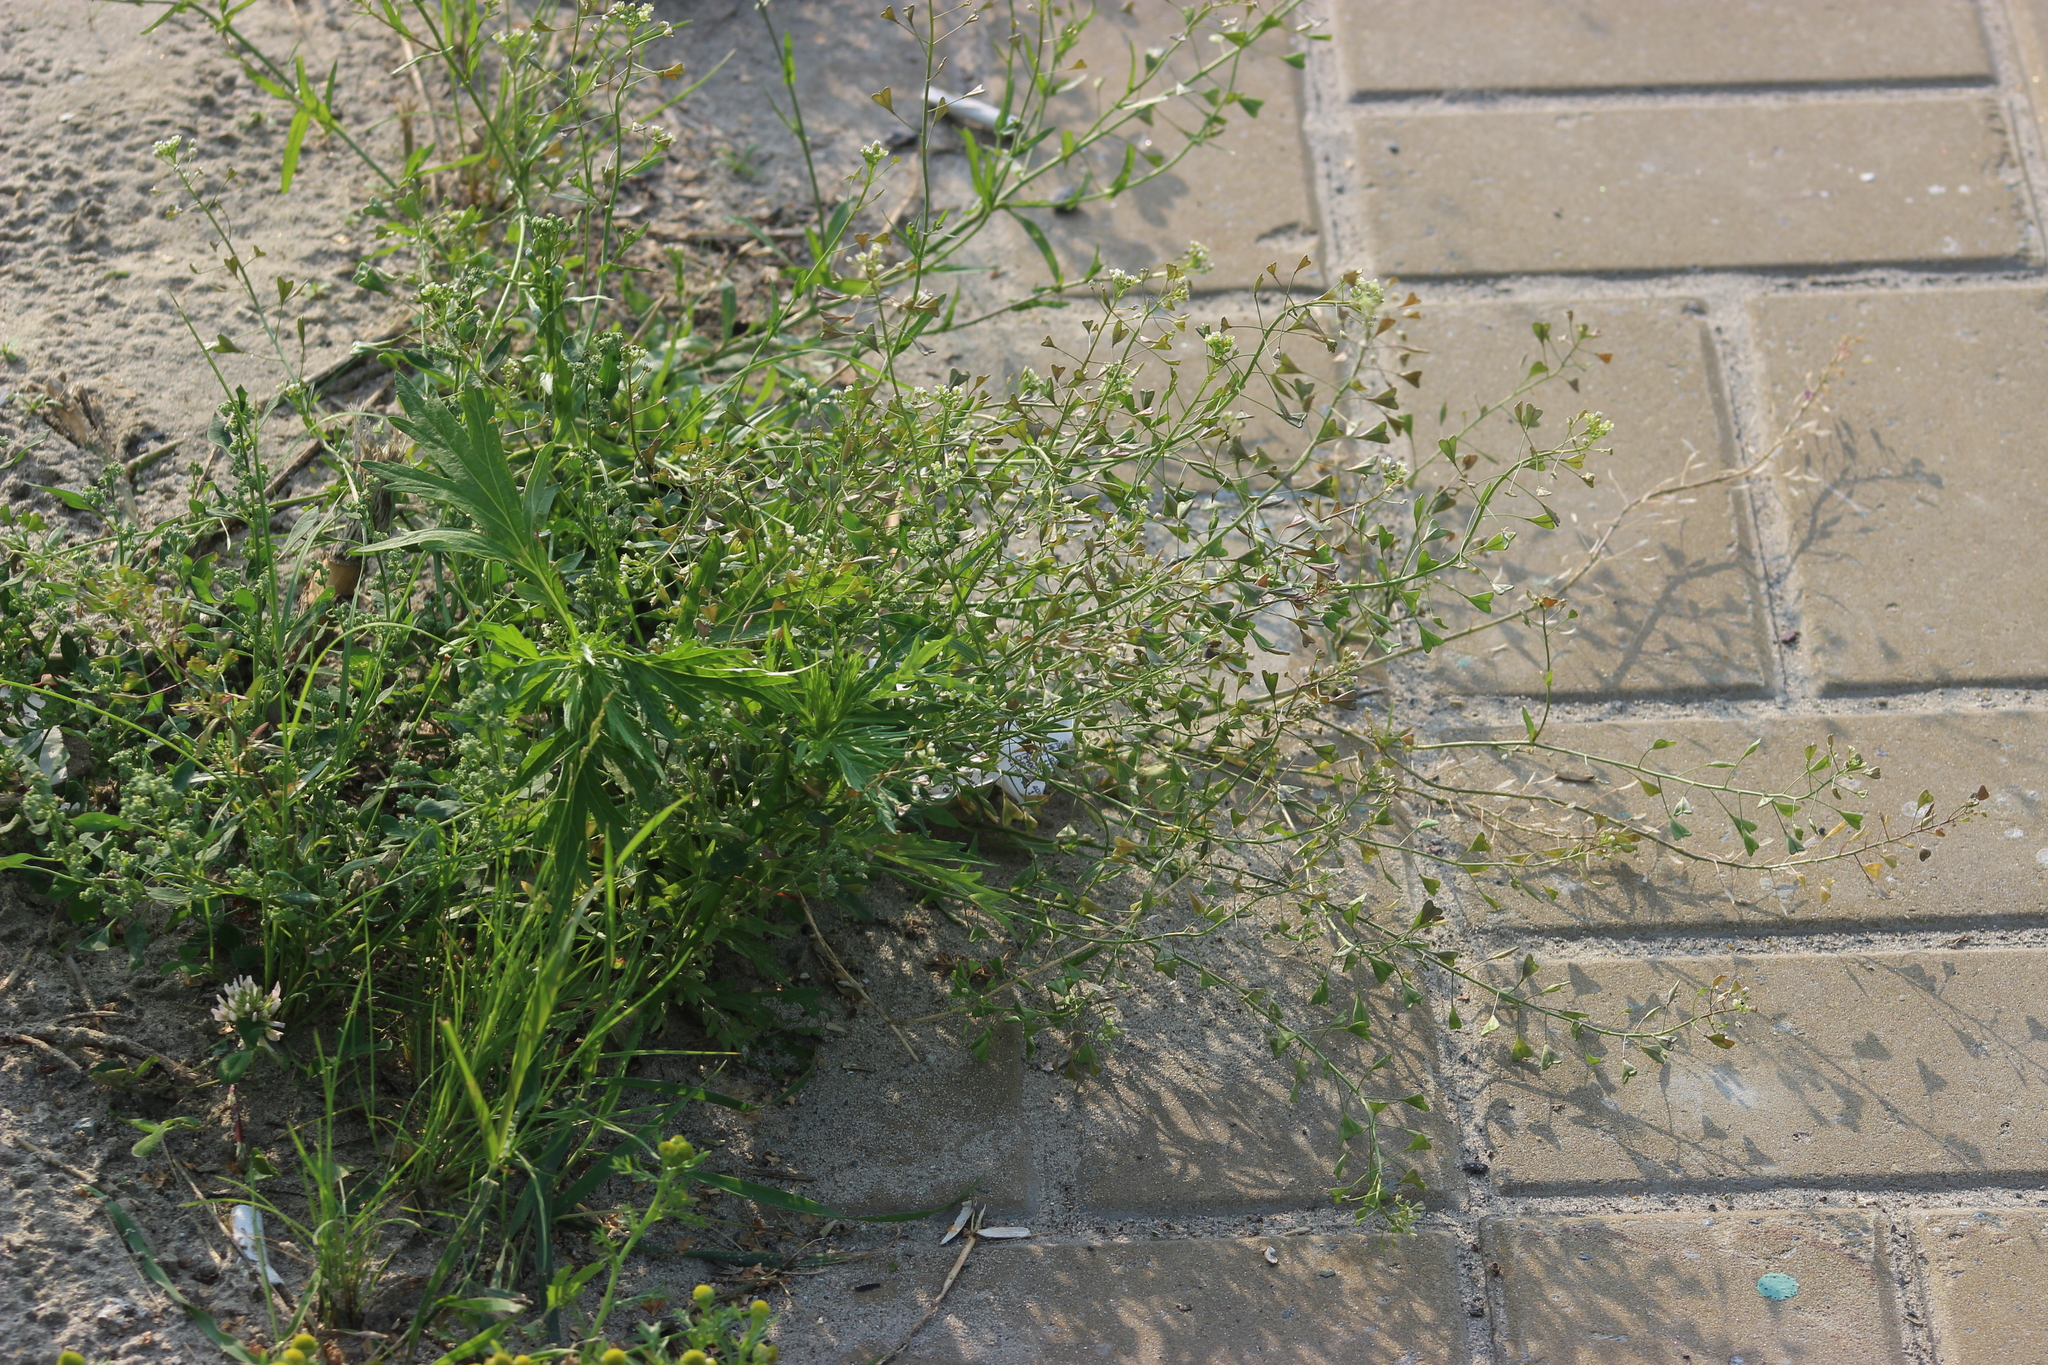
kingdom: Plantae
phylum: Tracheophyta
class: Magnoliopsida
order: Brassicales
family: Brassicaceae
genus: Capsella
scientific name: Capsella bursa-pastoris
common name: Shepherd's purse
